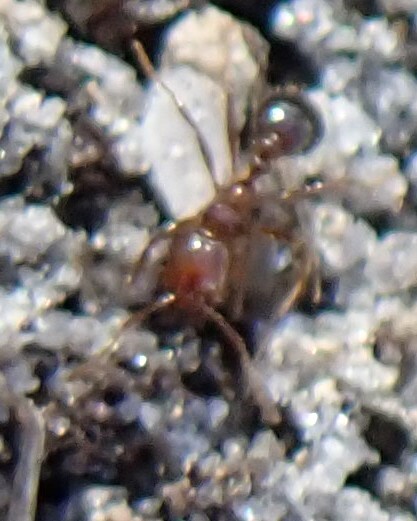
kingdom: Animalia
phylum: Arthropoda
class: Insecta
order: Hymenoptera
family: Formicidae
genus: Solenopsis
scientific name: Solenopsis invicta
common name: Red imported fire ant
